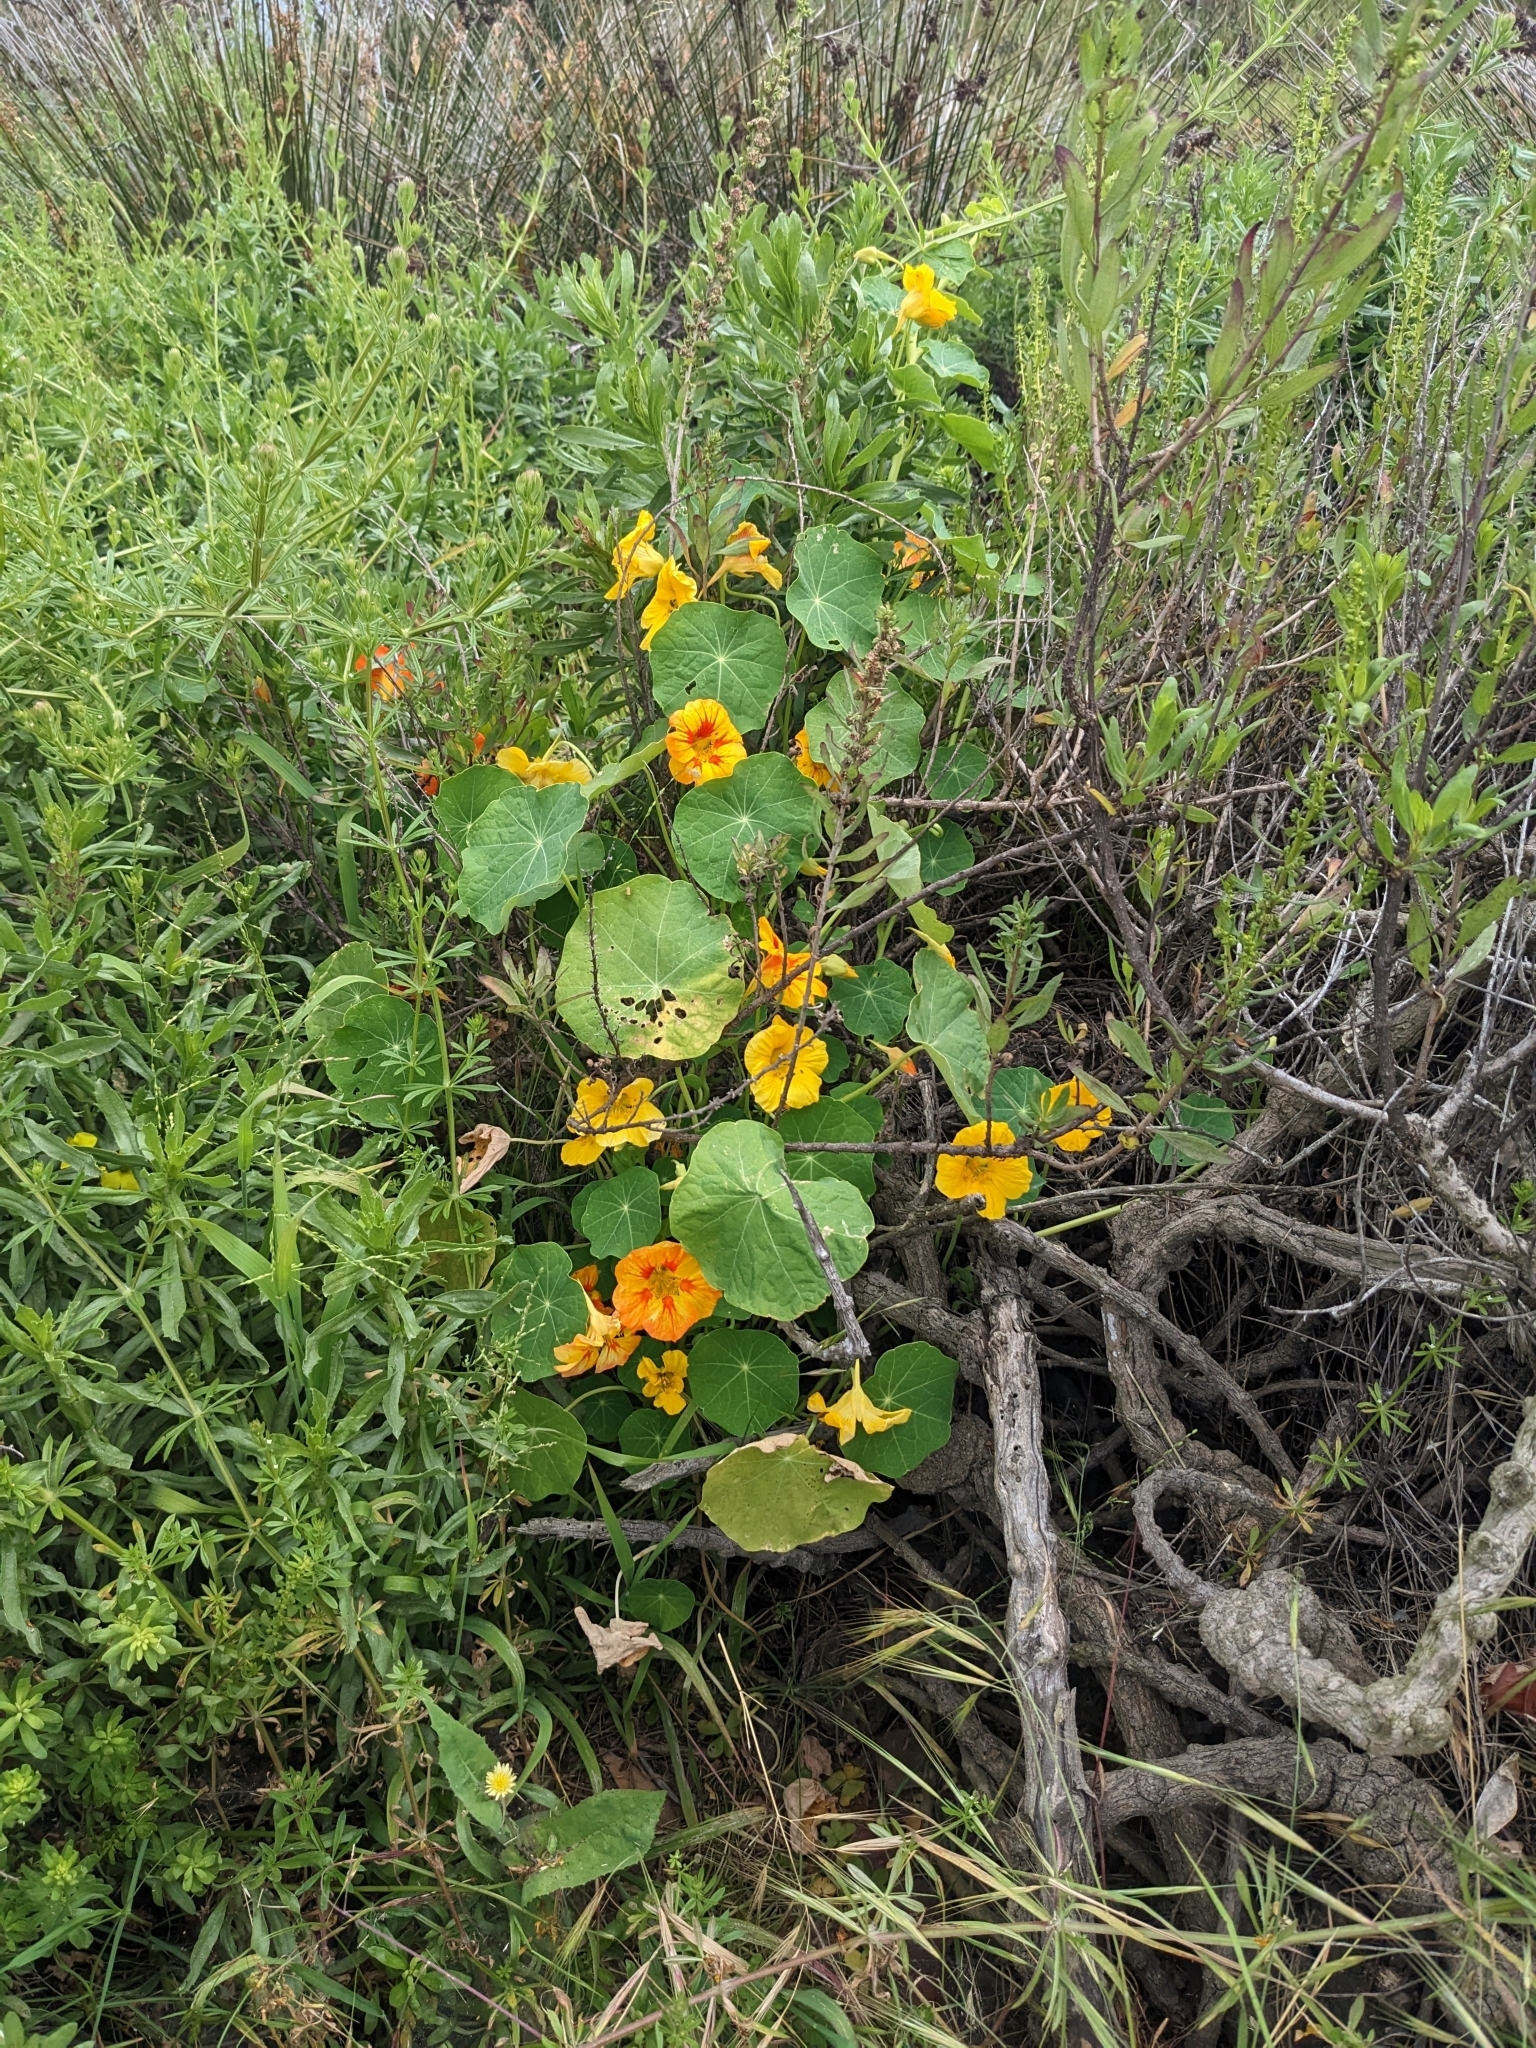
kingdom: Plantae
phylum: Tracheophyta
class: Magnoliopsida
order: Brassicales
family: Tropaeolaceae
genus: Tropaeolum
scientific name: Tropaeolum majus
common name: Nasturtium
